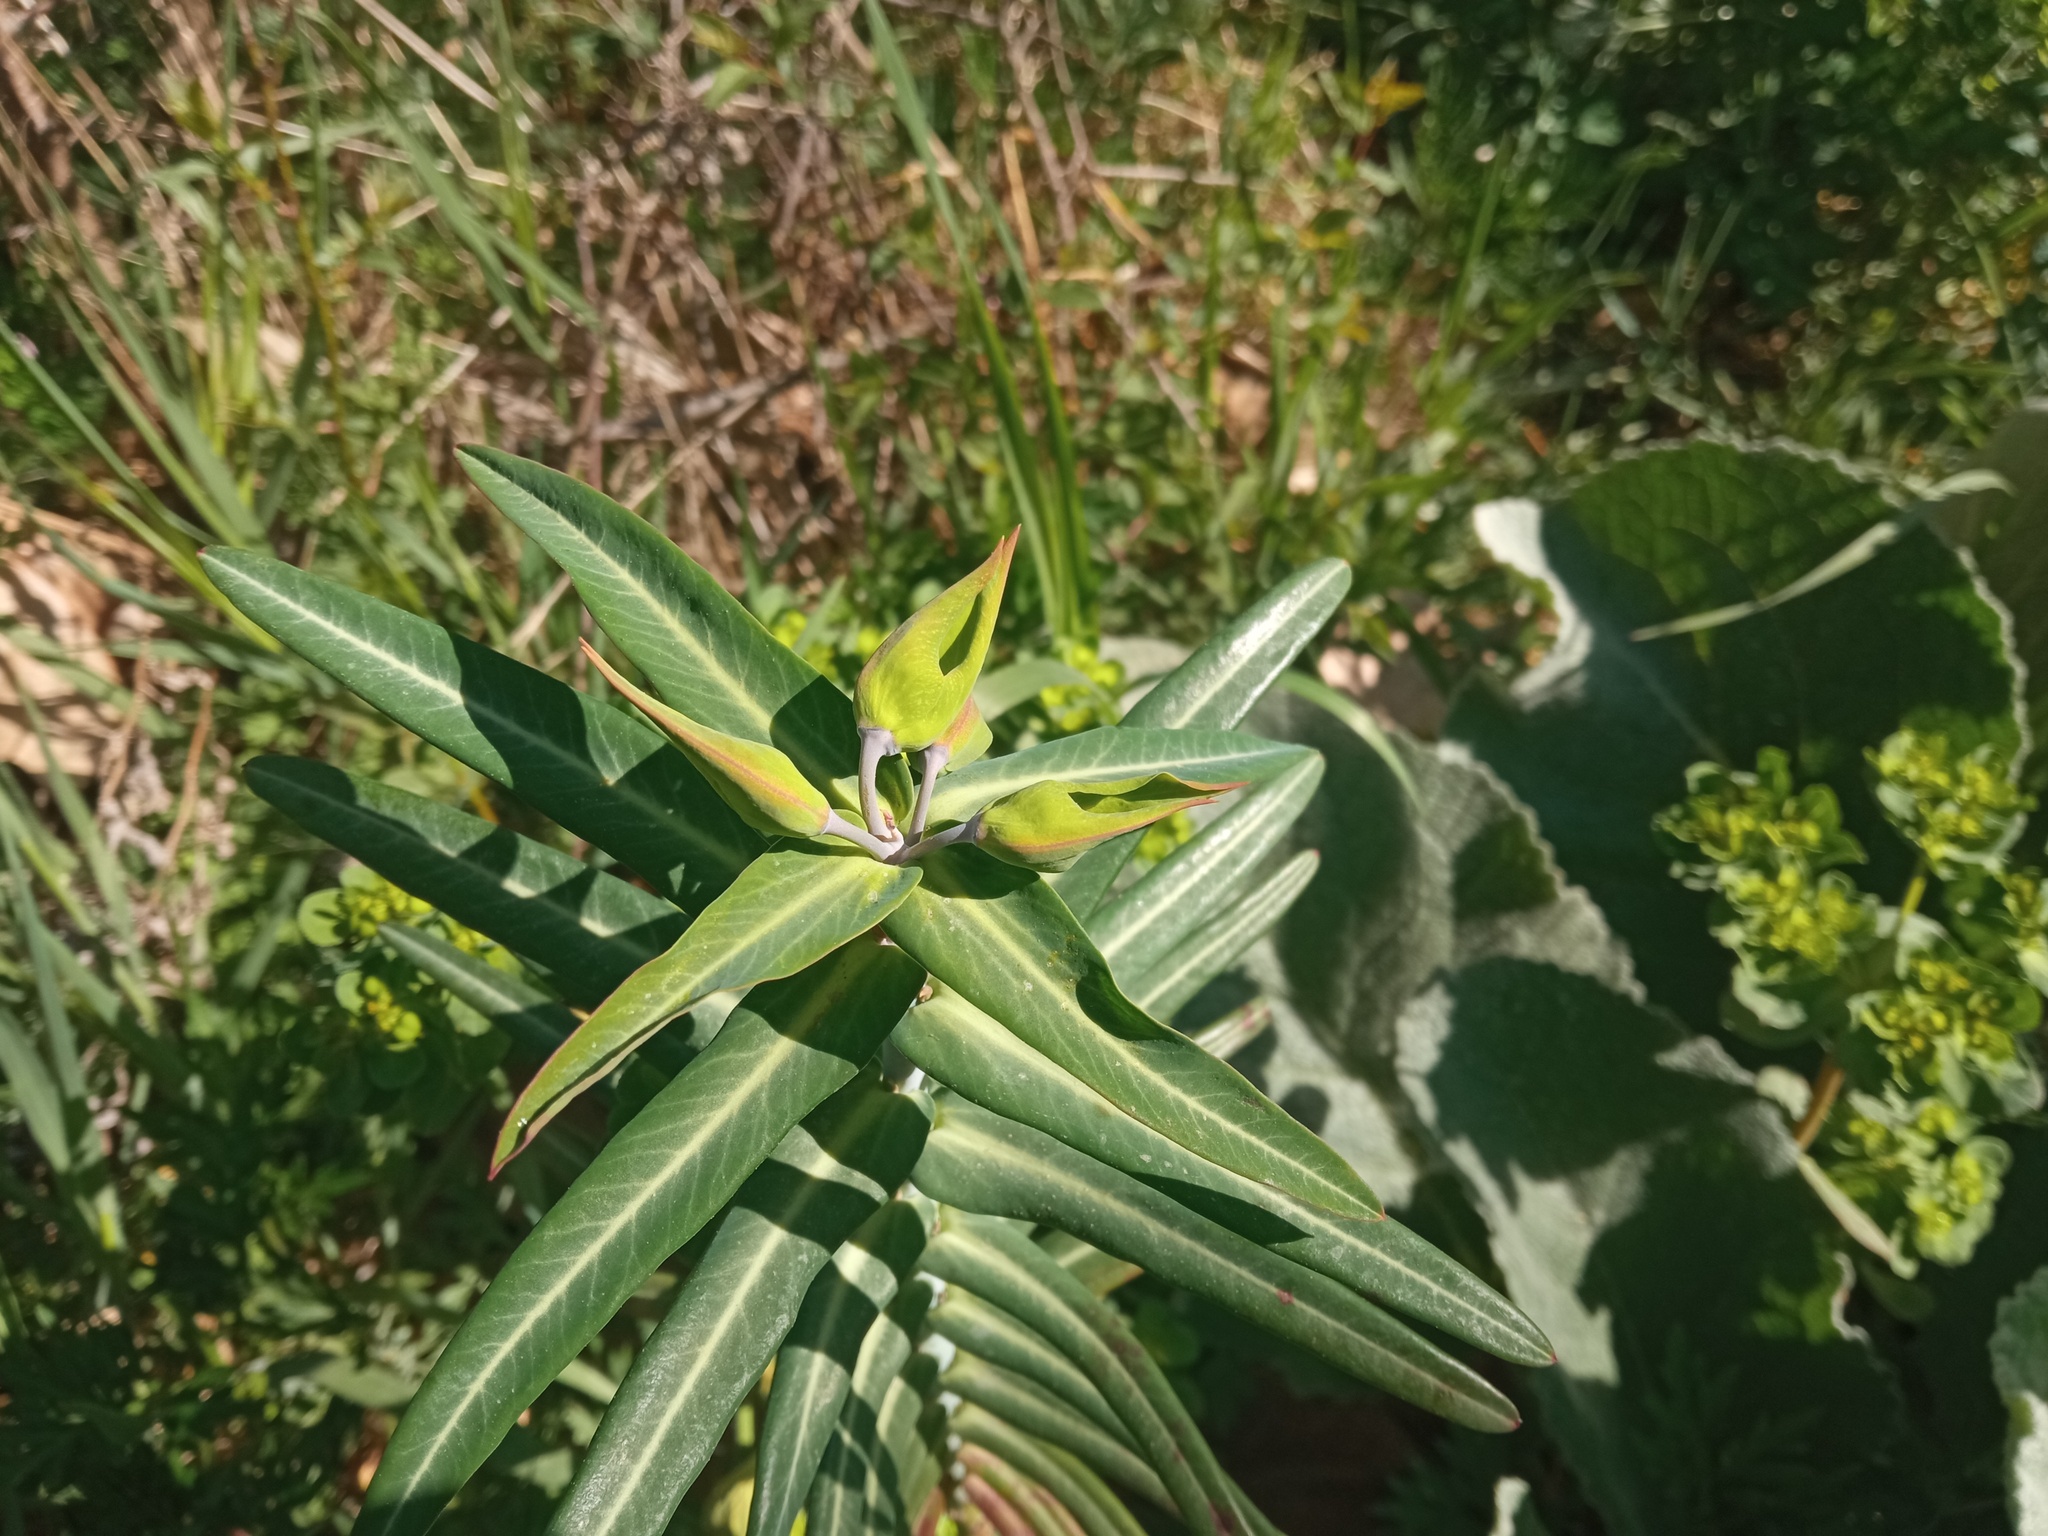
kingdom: Plantae
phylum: Tracheophyta
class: Magnoliopsida
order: Malpighiales
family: Euphorbiaceae
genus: Euphorbia
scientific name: Euphorbia lathyris
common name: Caper spurge
